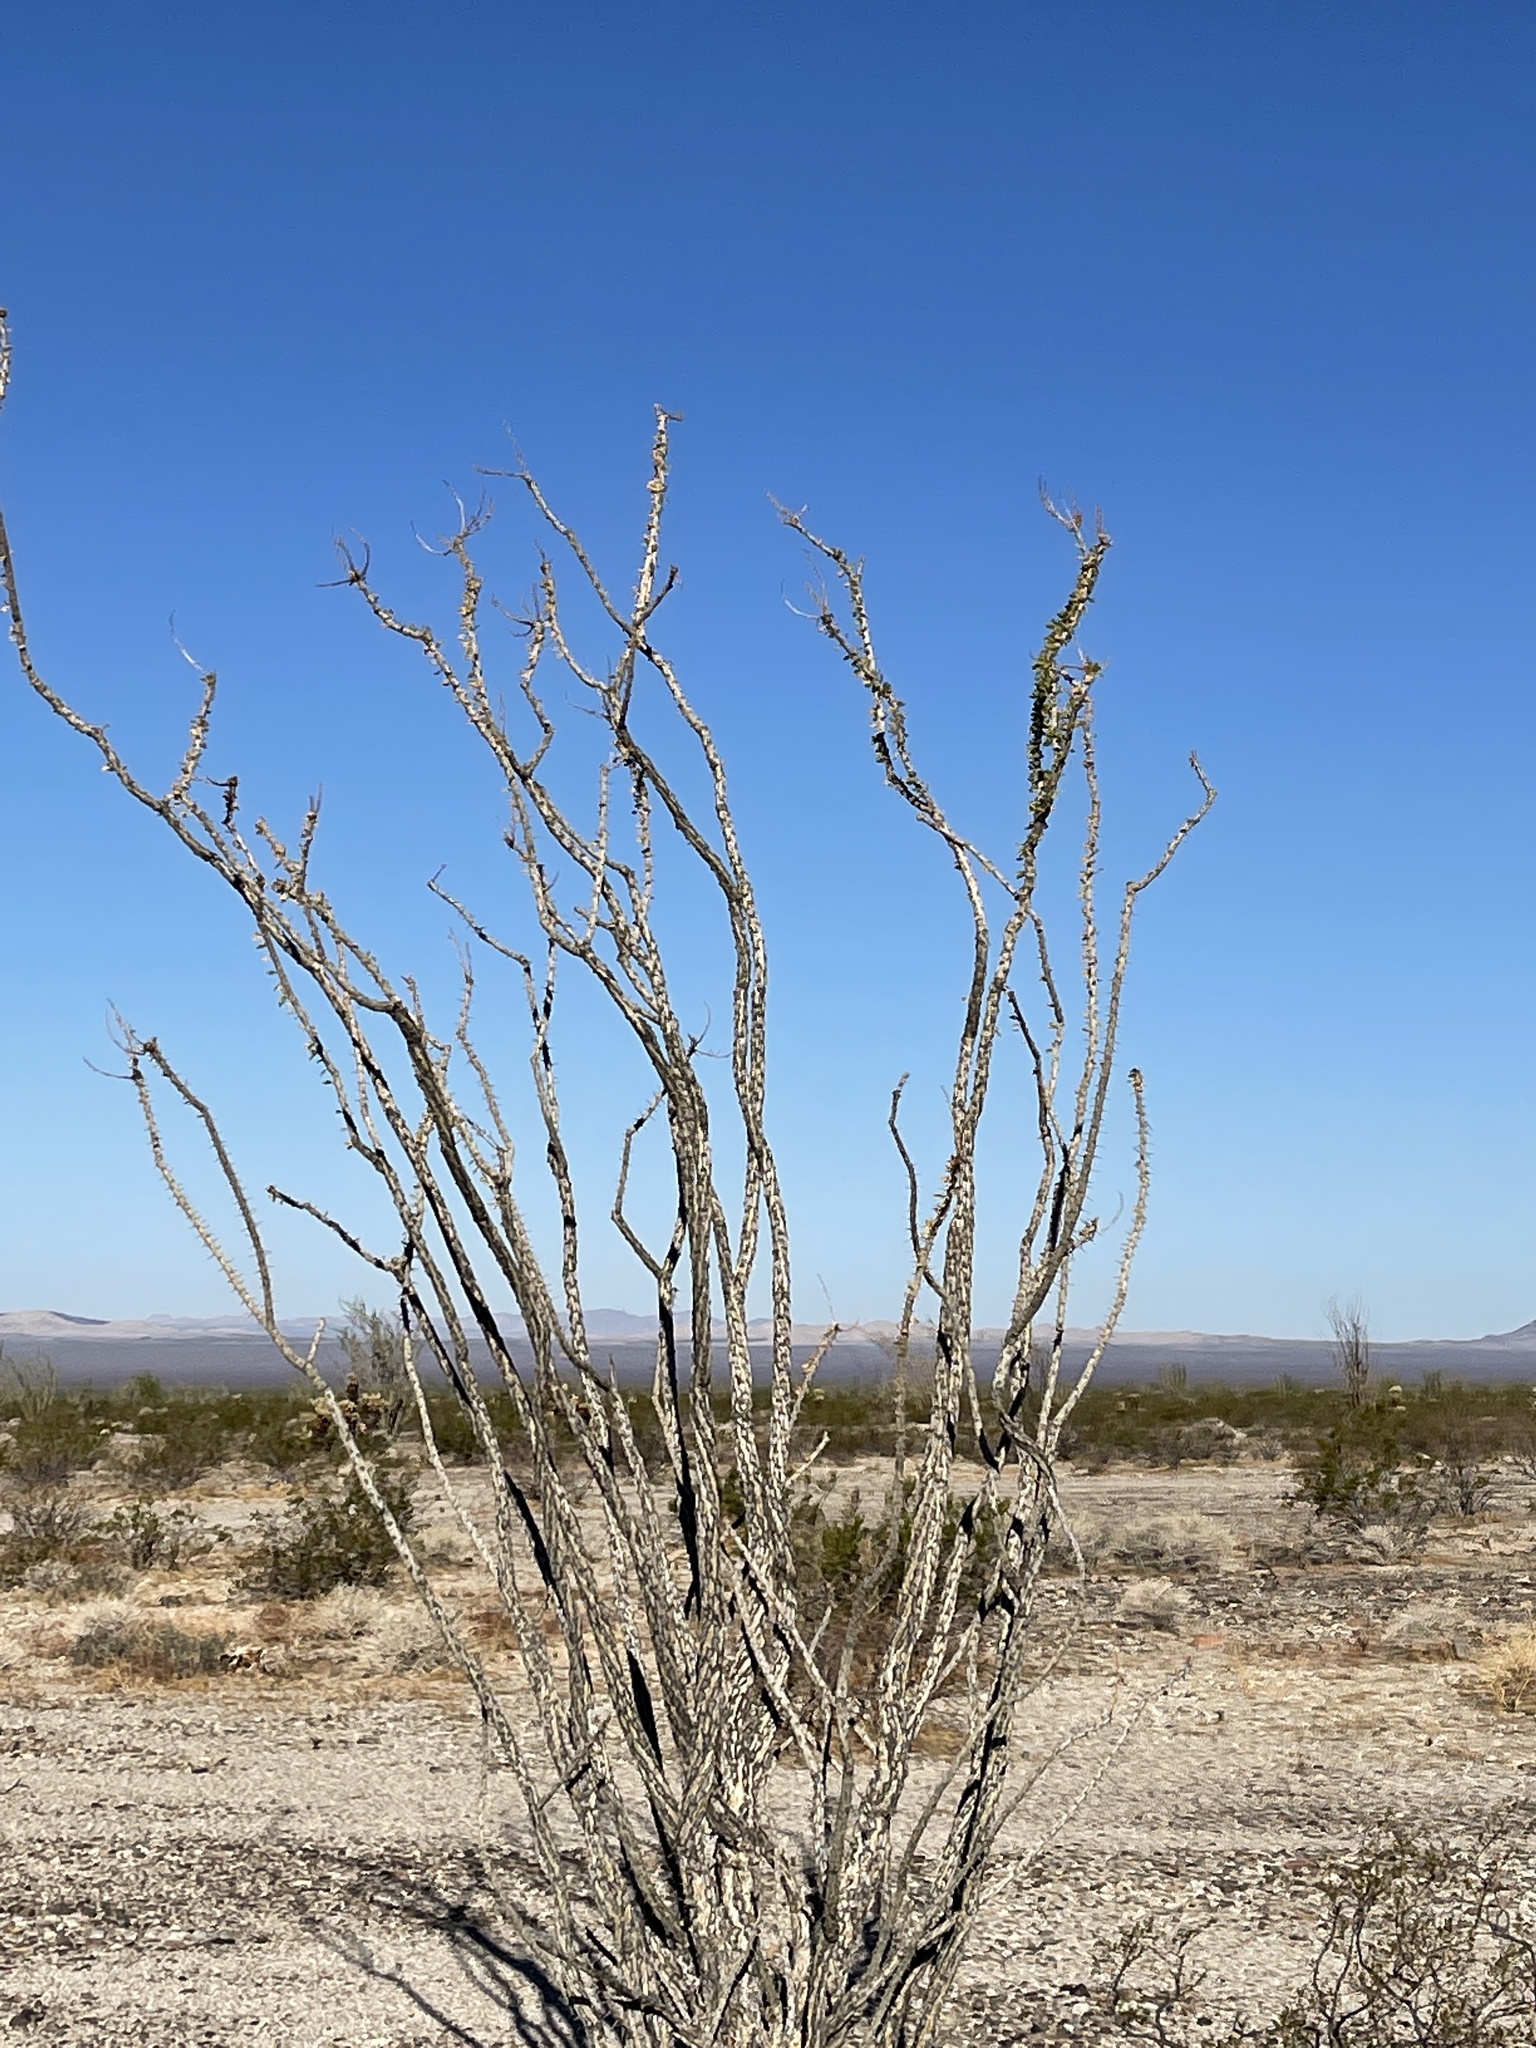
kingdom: Plantae
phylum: Tracheophyta
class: Magnoliopsida
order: Ericales
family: Fouquieriaceae
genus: Fouquieria
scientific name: Fouquieria splendens
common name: Vine-cactus
